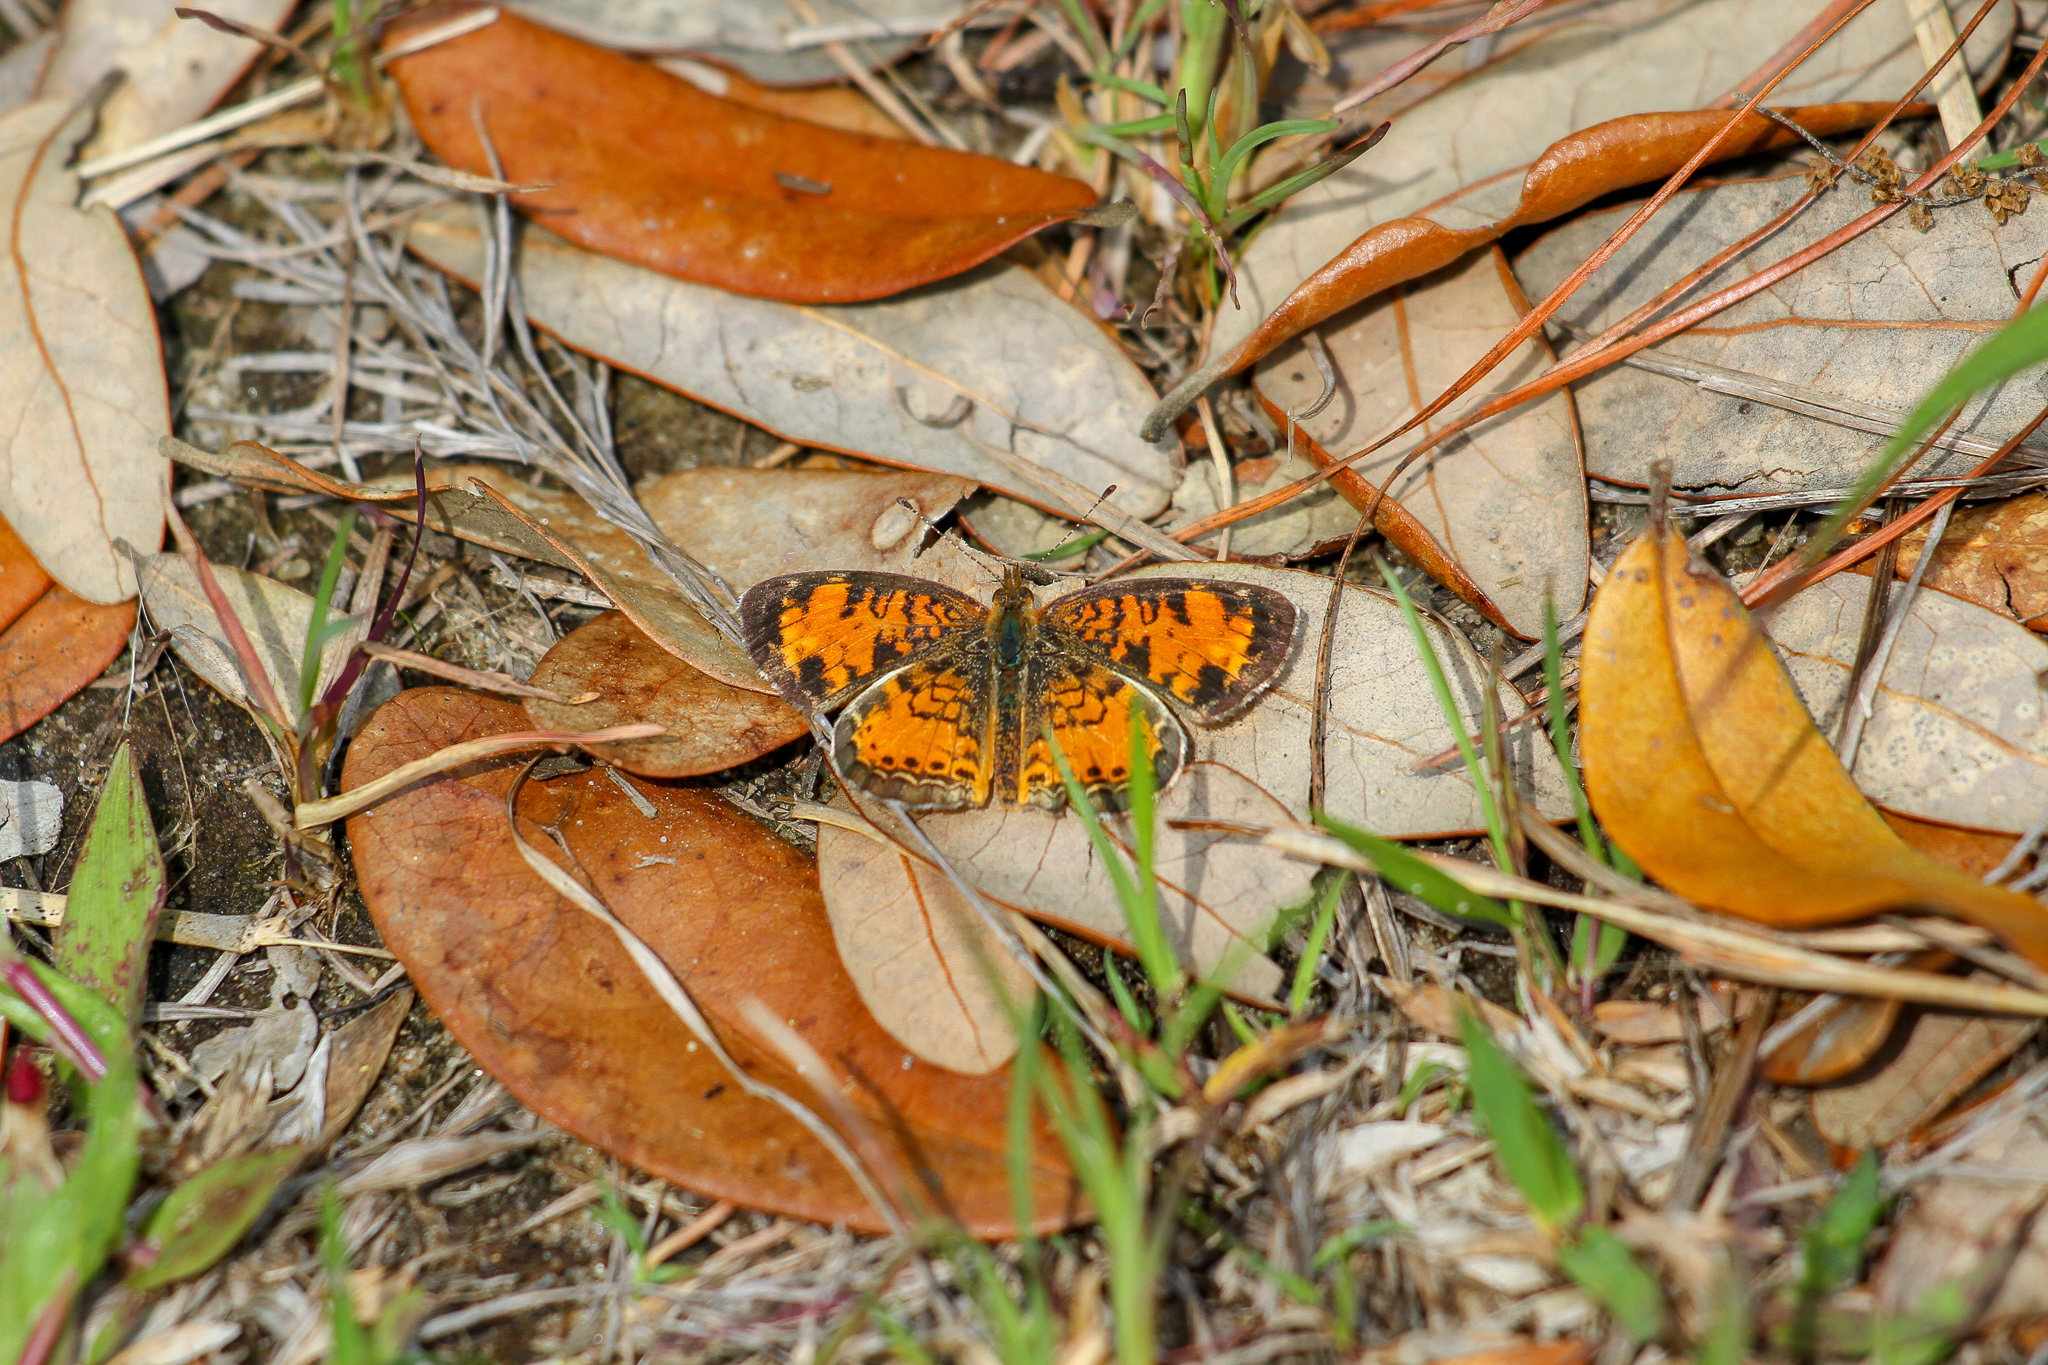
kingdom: Animalia
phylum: Arthropoda
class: Insecta
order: Lepidoptera
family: Nymphalidae
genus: Phyciodes
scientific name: Phyciodes tharos
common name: Pearl crescent
